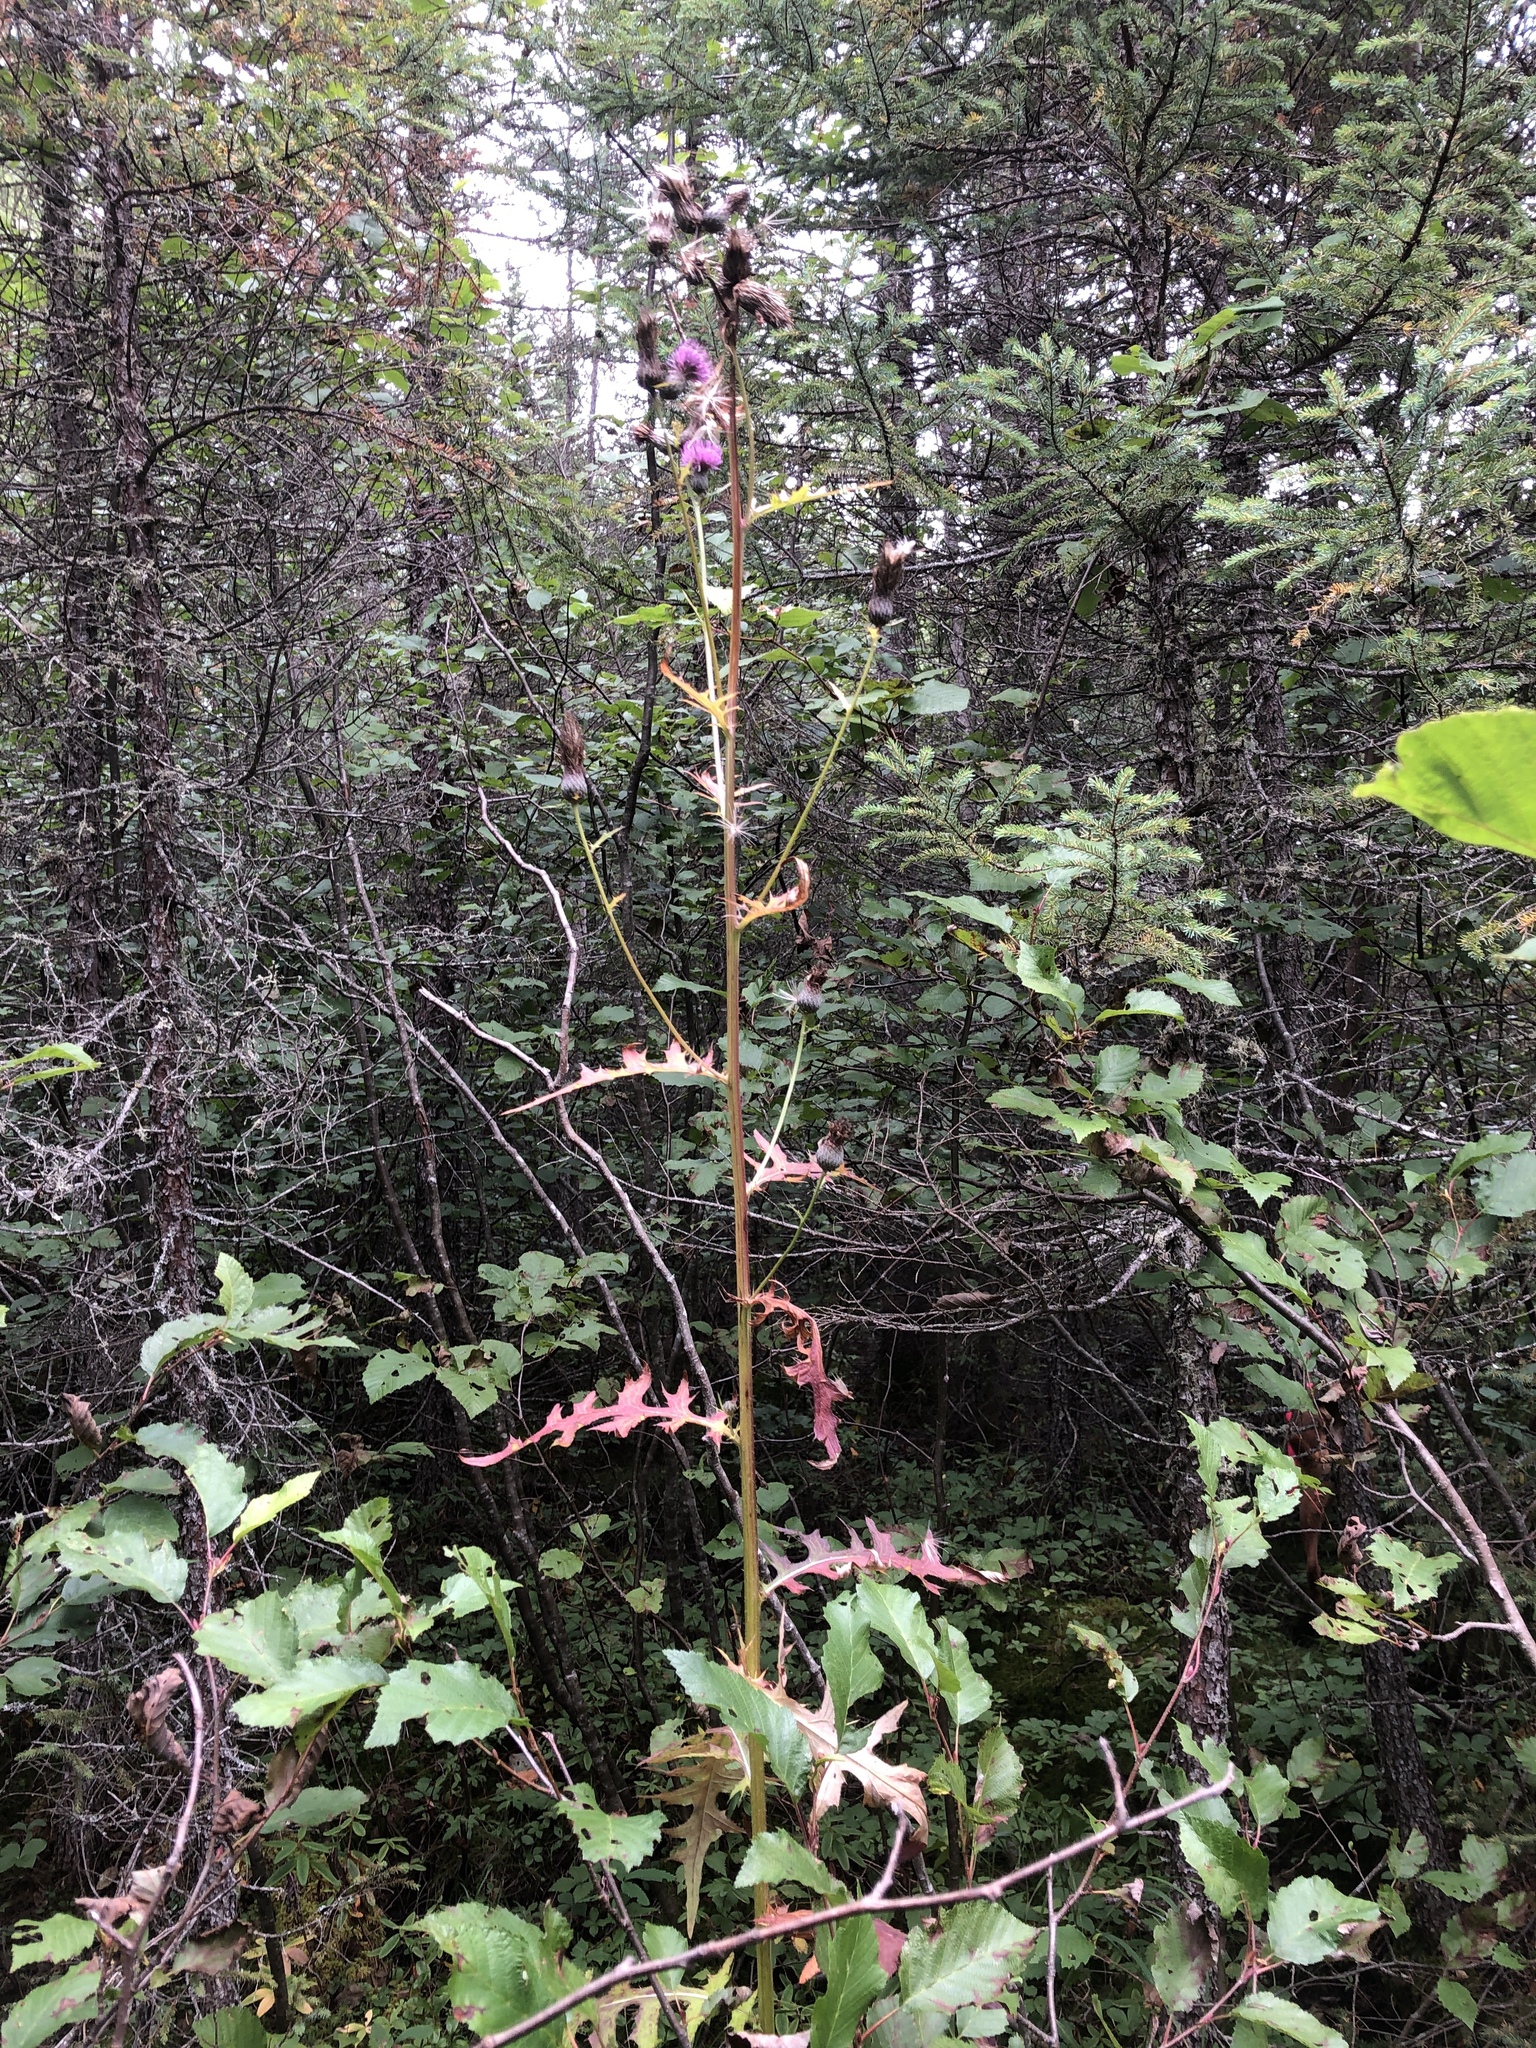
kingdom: Plantae
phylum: Tracheophyta
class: Magnoliopsida
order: Asterales
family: Asteraceae
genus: Cirsium
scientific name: Cirsium muticum
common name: Dunce-nettle
